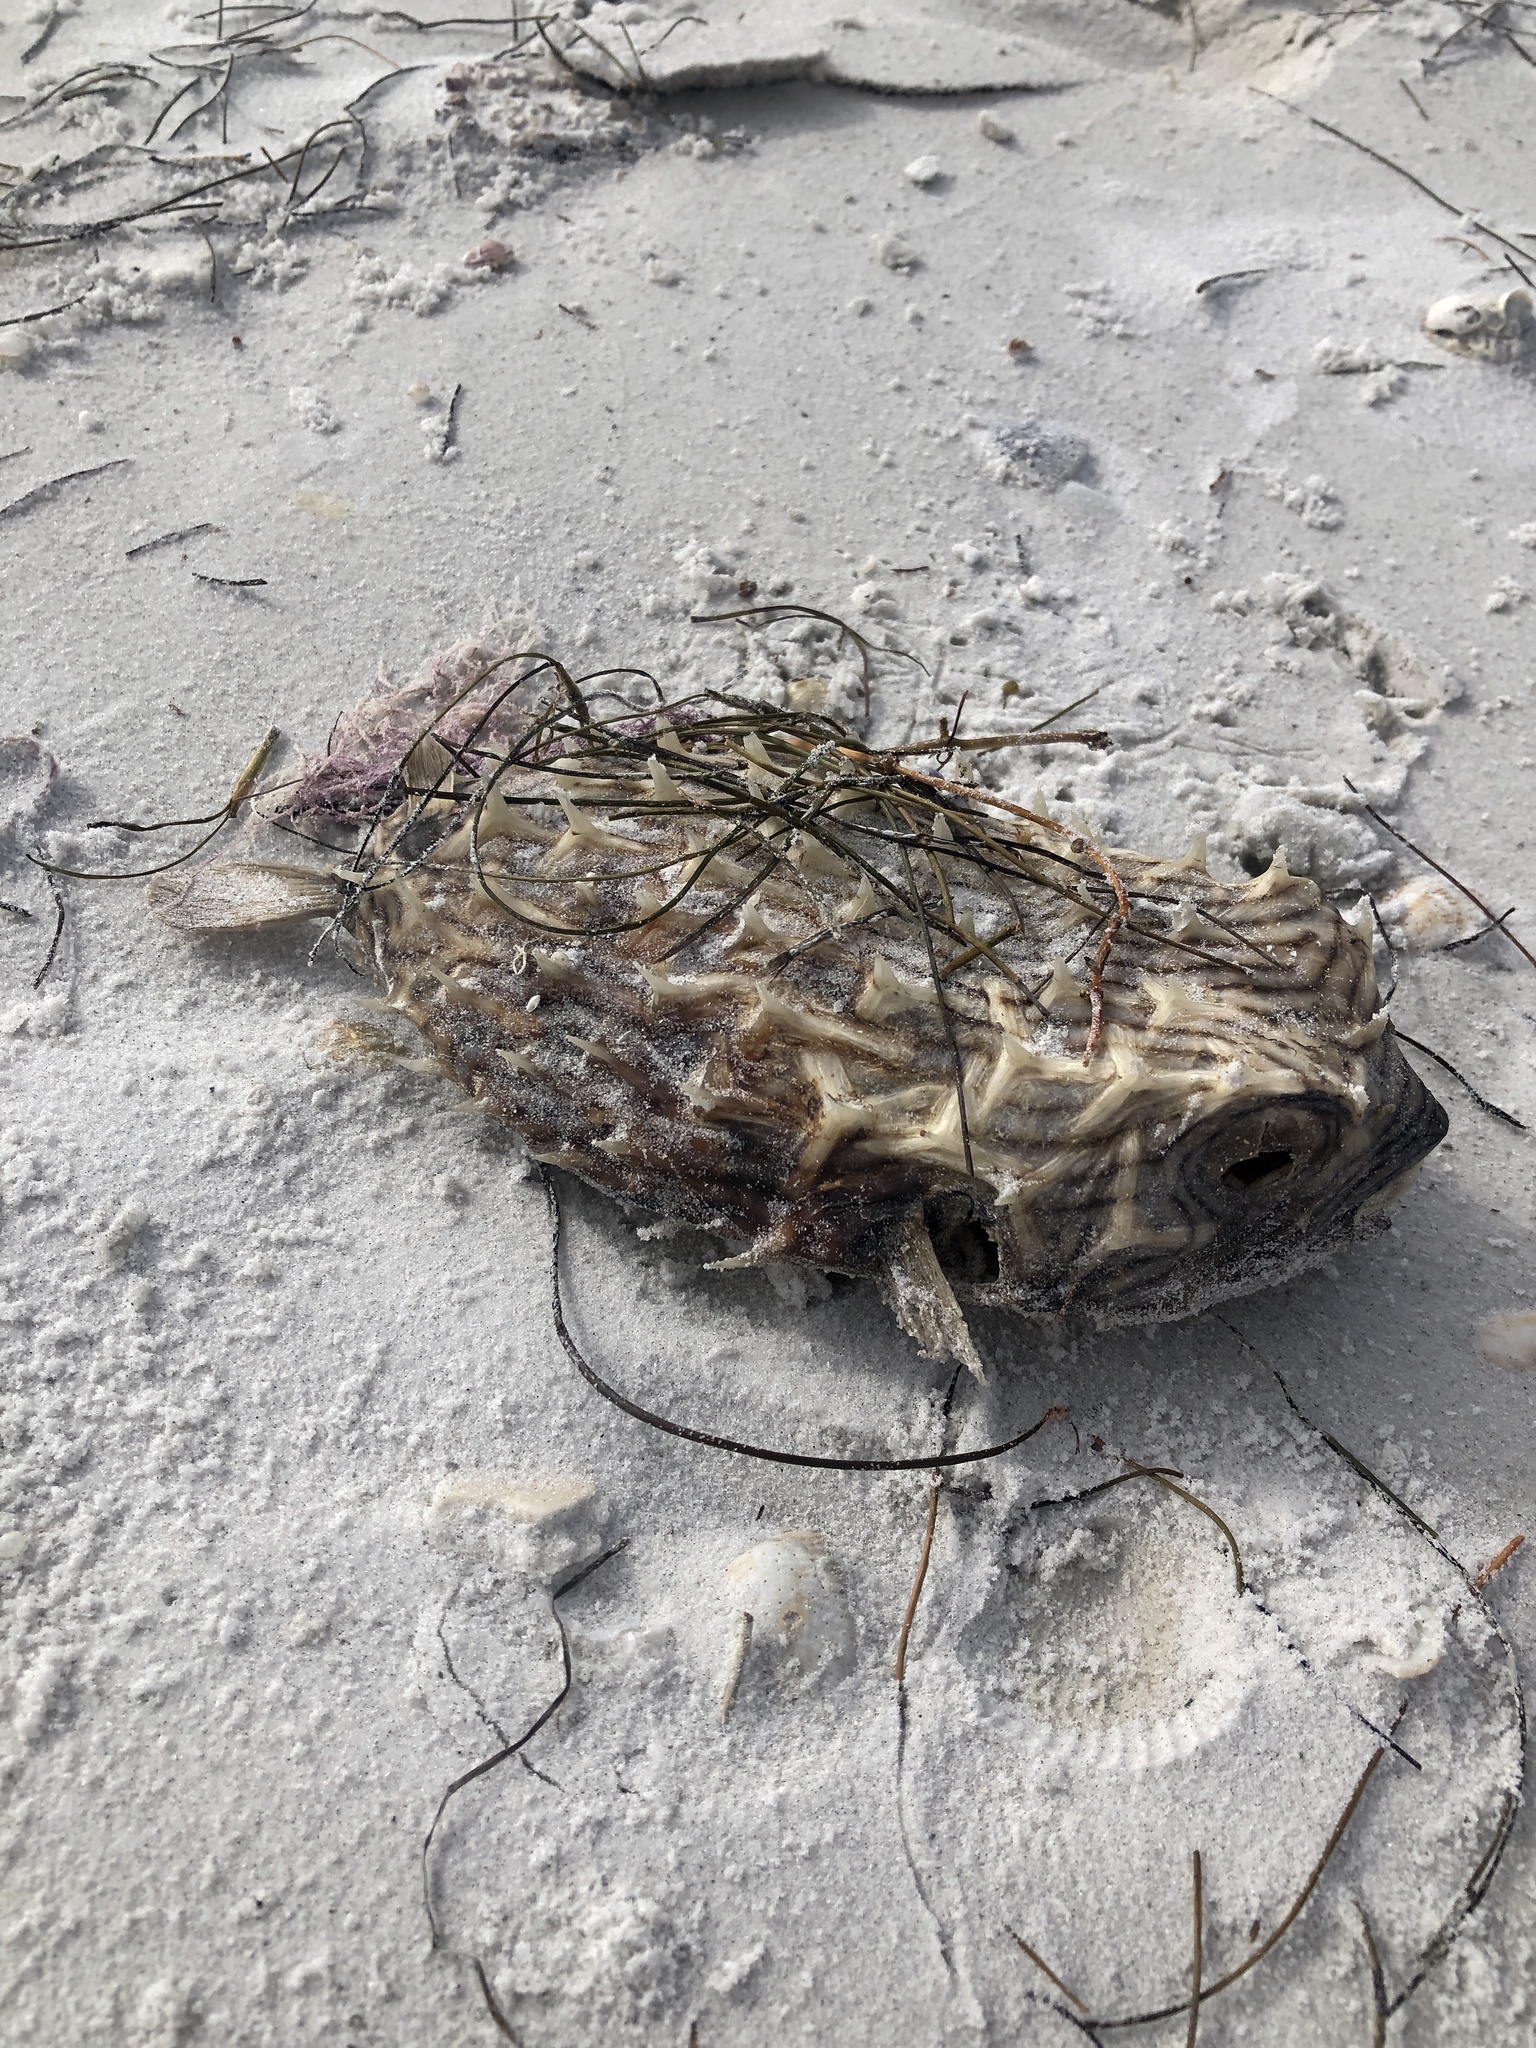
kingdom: Animalia
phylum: Chordata
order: Tetraodontiformes
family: Diodontidae
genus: Chilomycterus
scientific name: Chilomycterus schoepfii
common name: Striped burrfish
